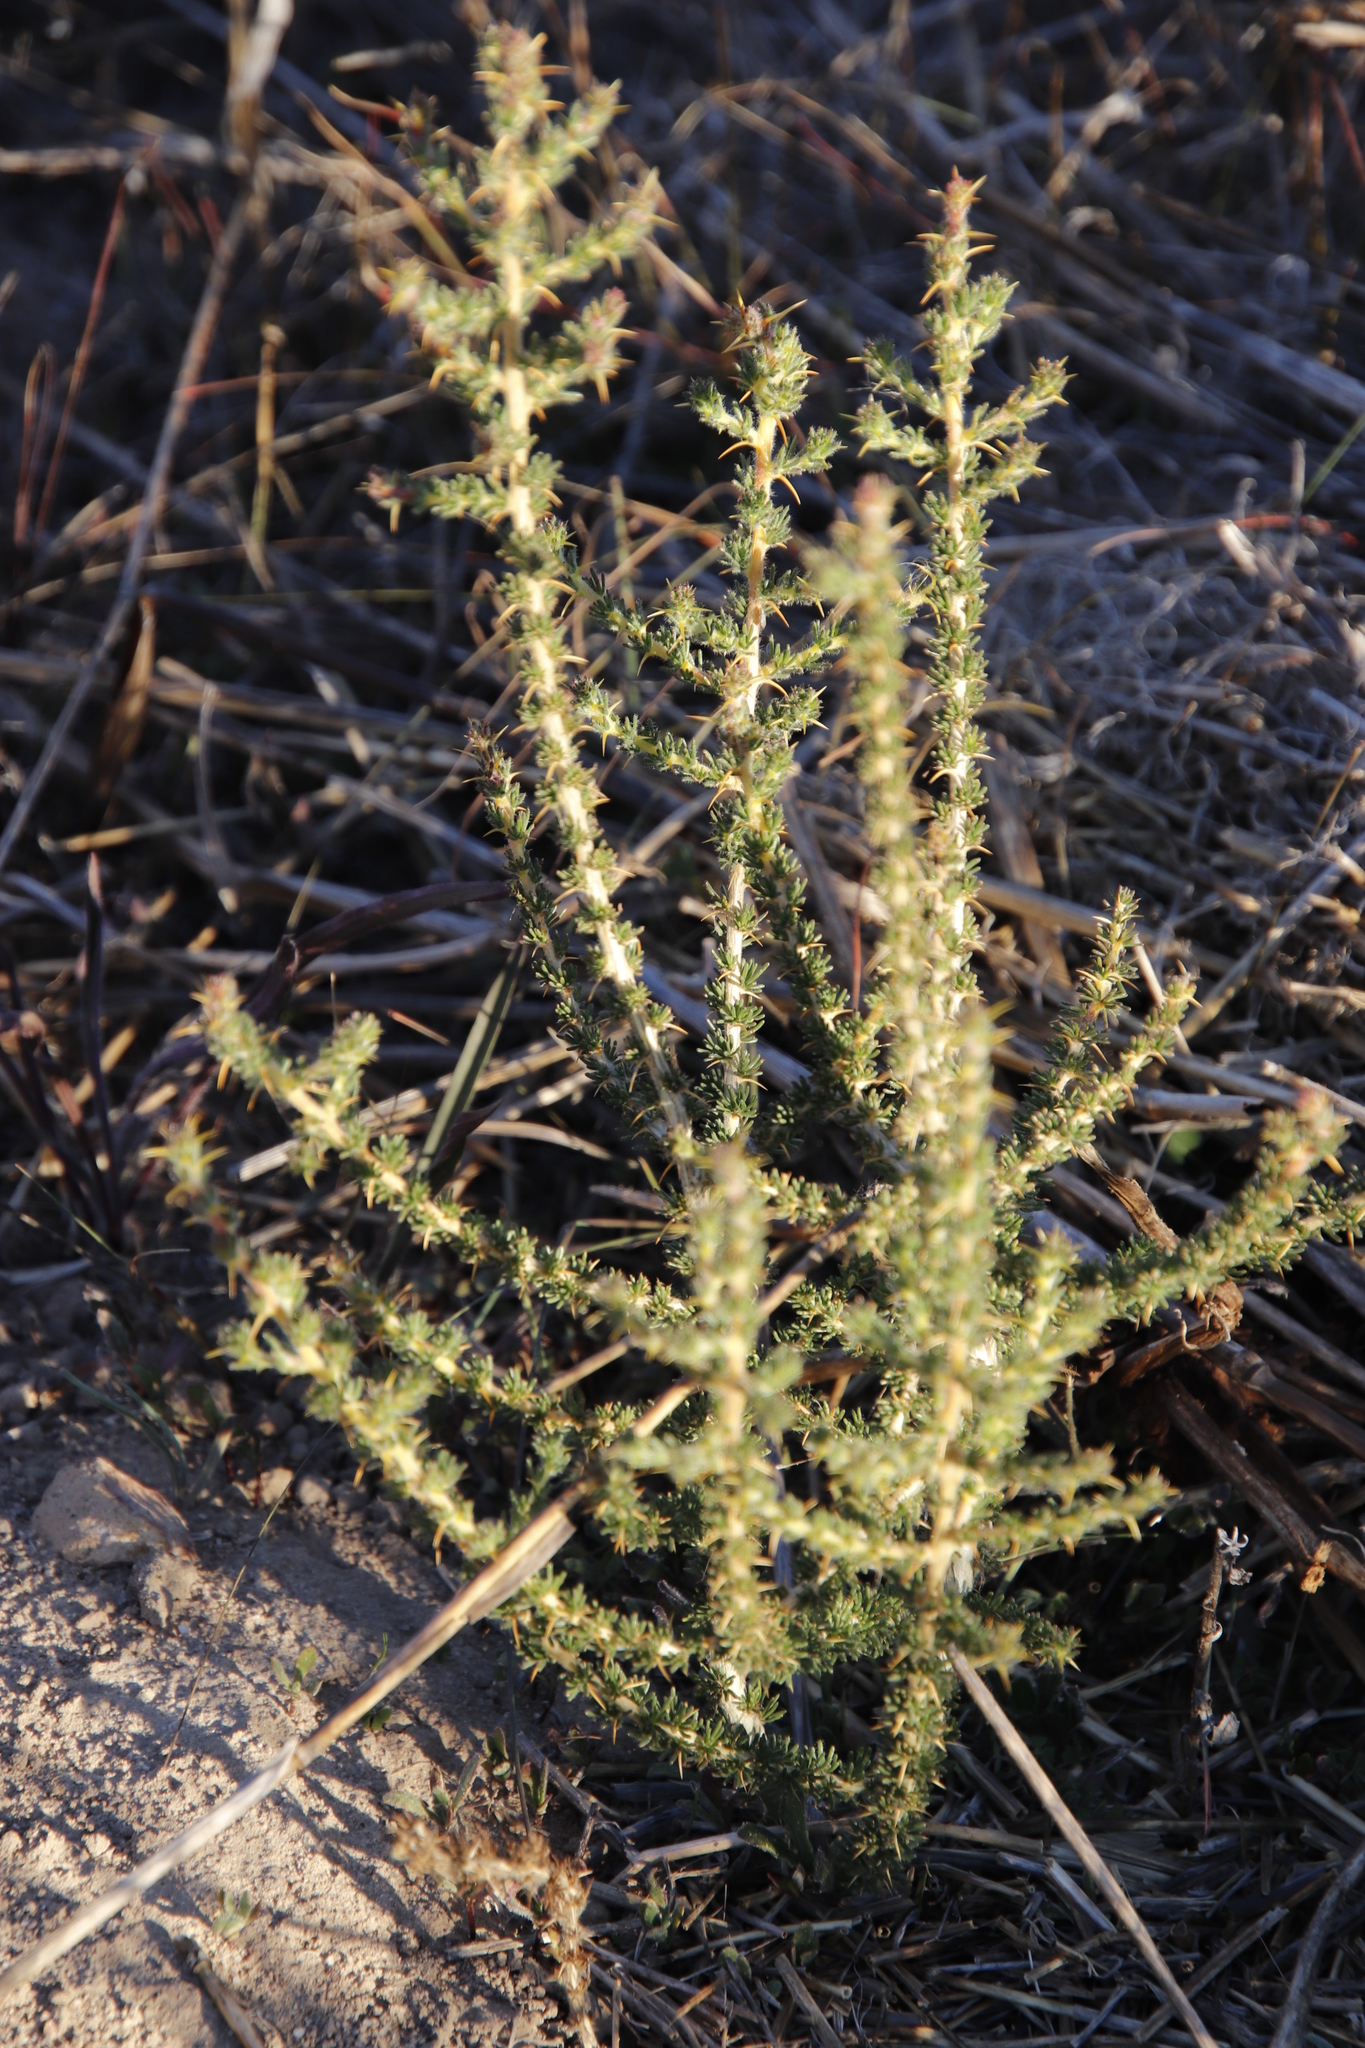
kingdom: Plantae
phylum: Tracheophyta
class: Magnoliopsida
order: Fabales
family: Fabaceae
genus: Aspalathus
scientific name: Aspalathus aculeata
